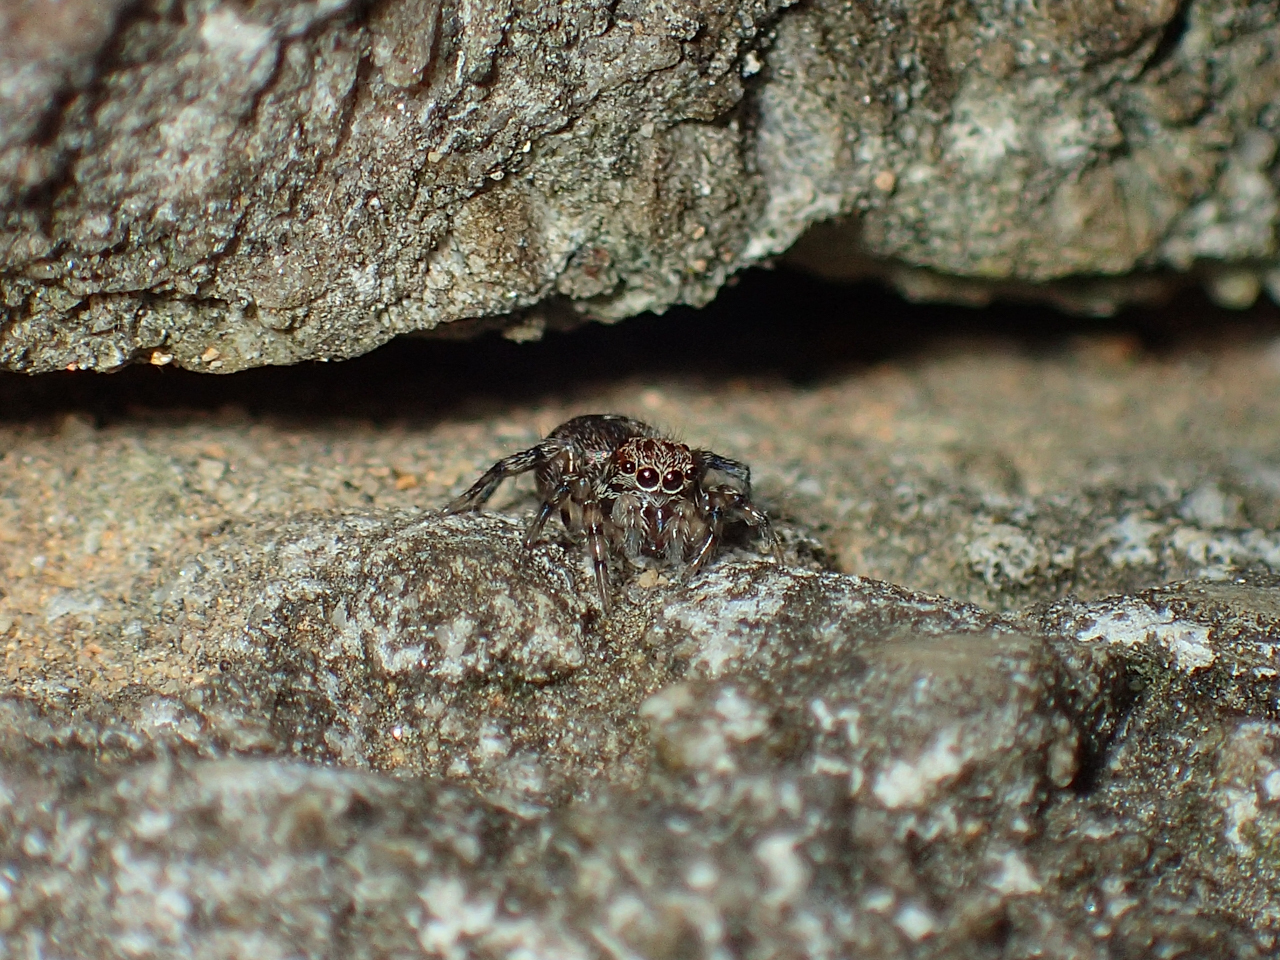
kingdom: Animalia
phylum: Arthropoda
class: Arachnida
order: Araneae
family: Salticidae
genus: Naphrys
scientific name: Naphrys pulex
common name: Flea jumping spider
